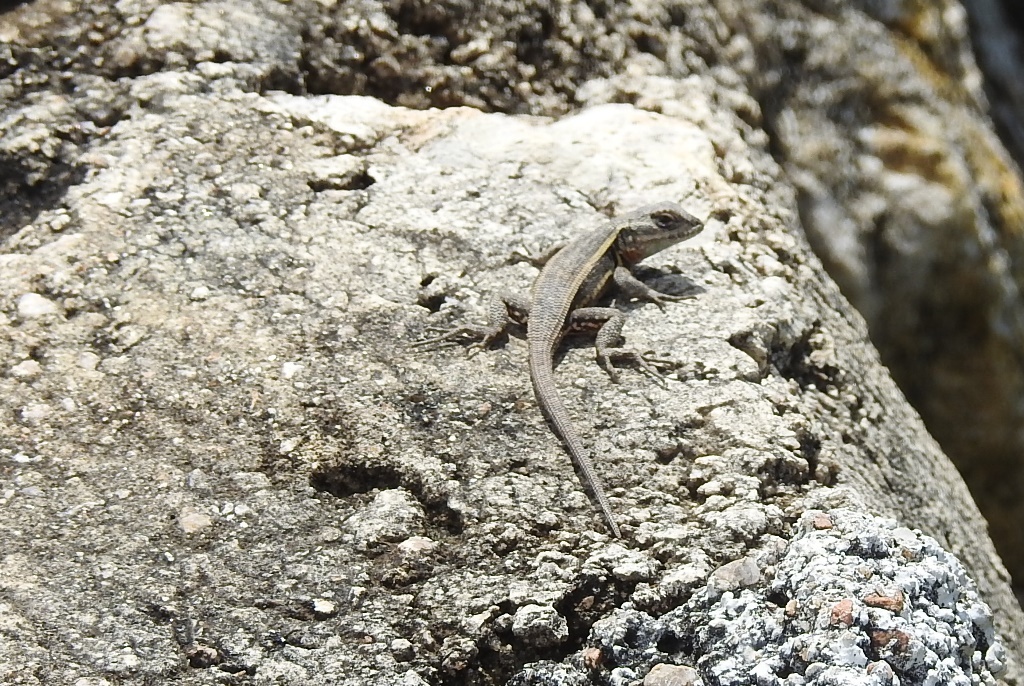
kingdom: Animalia
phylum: Chordata
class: Squamata
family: Phrynosomatidae
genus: Sceloporus
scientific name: Sceloporus variabilis
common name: Rosebelly lizard
